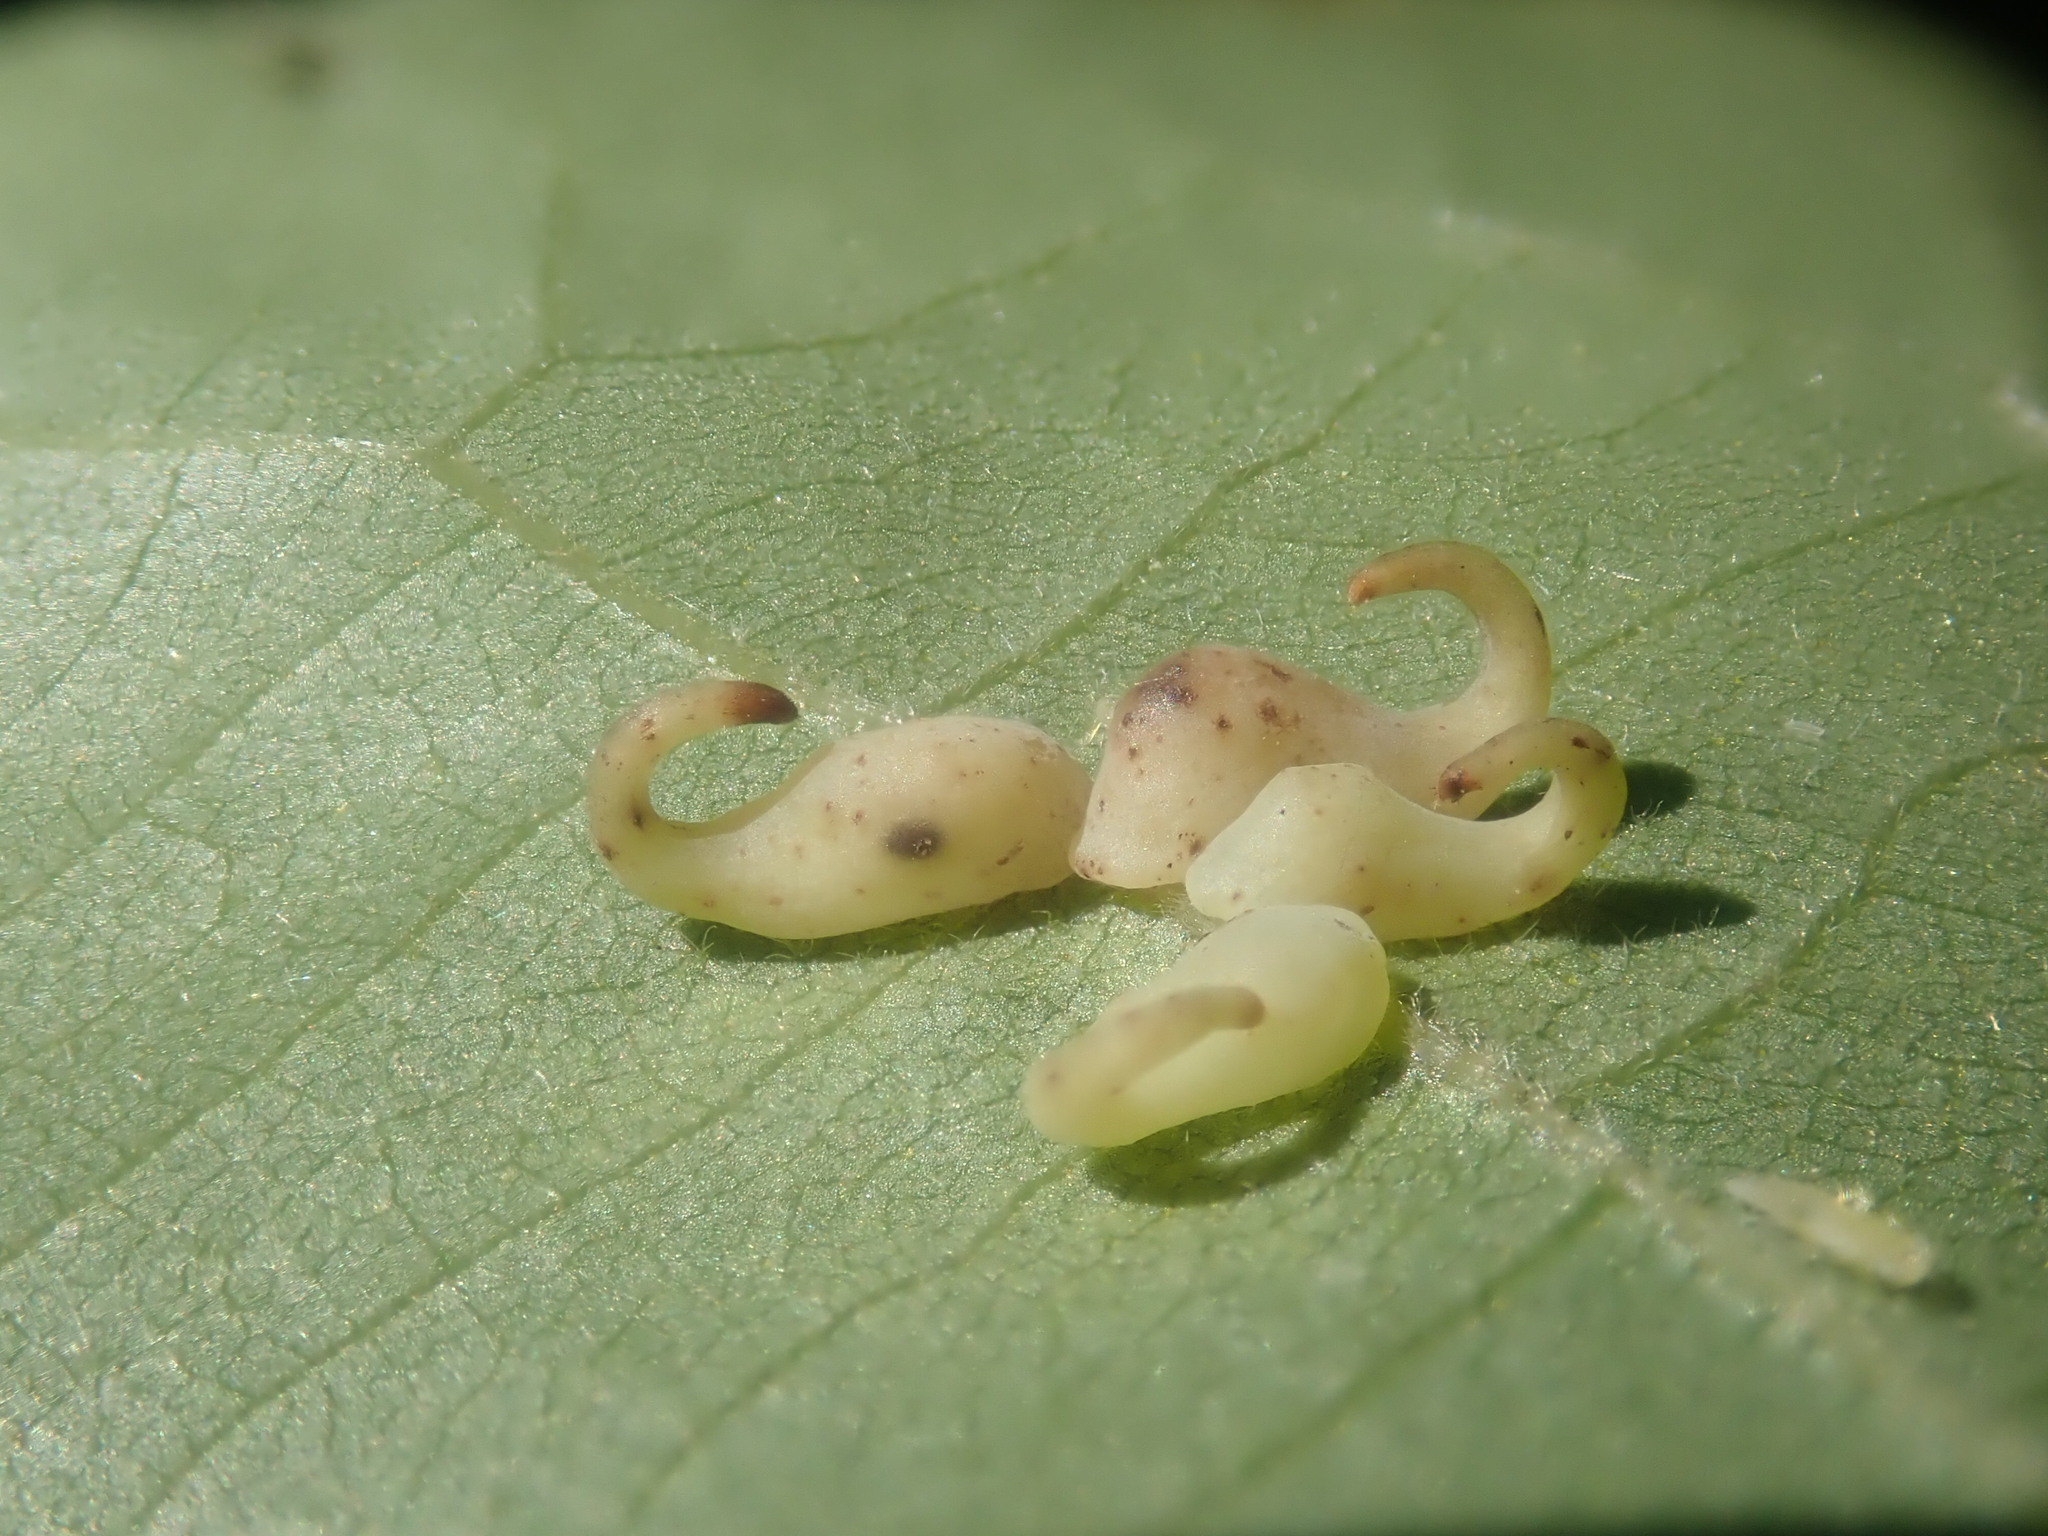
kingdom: Animalia
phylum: Arthropoda
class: Insecta
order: Diptera
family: Cecidomyiidae
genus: Caryomyia
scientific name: Caryomyia recurvata
